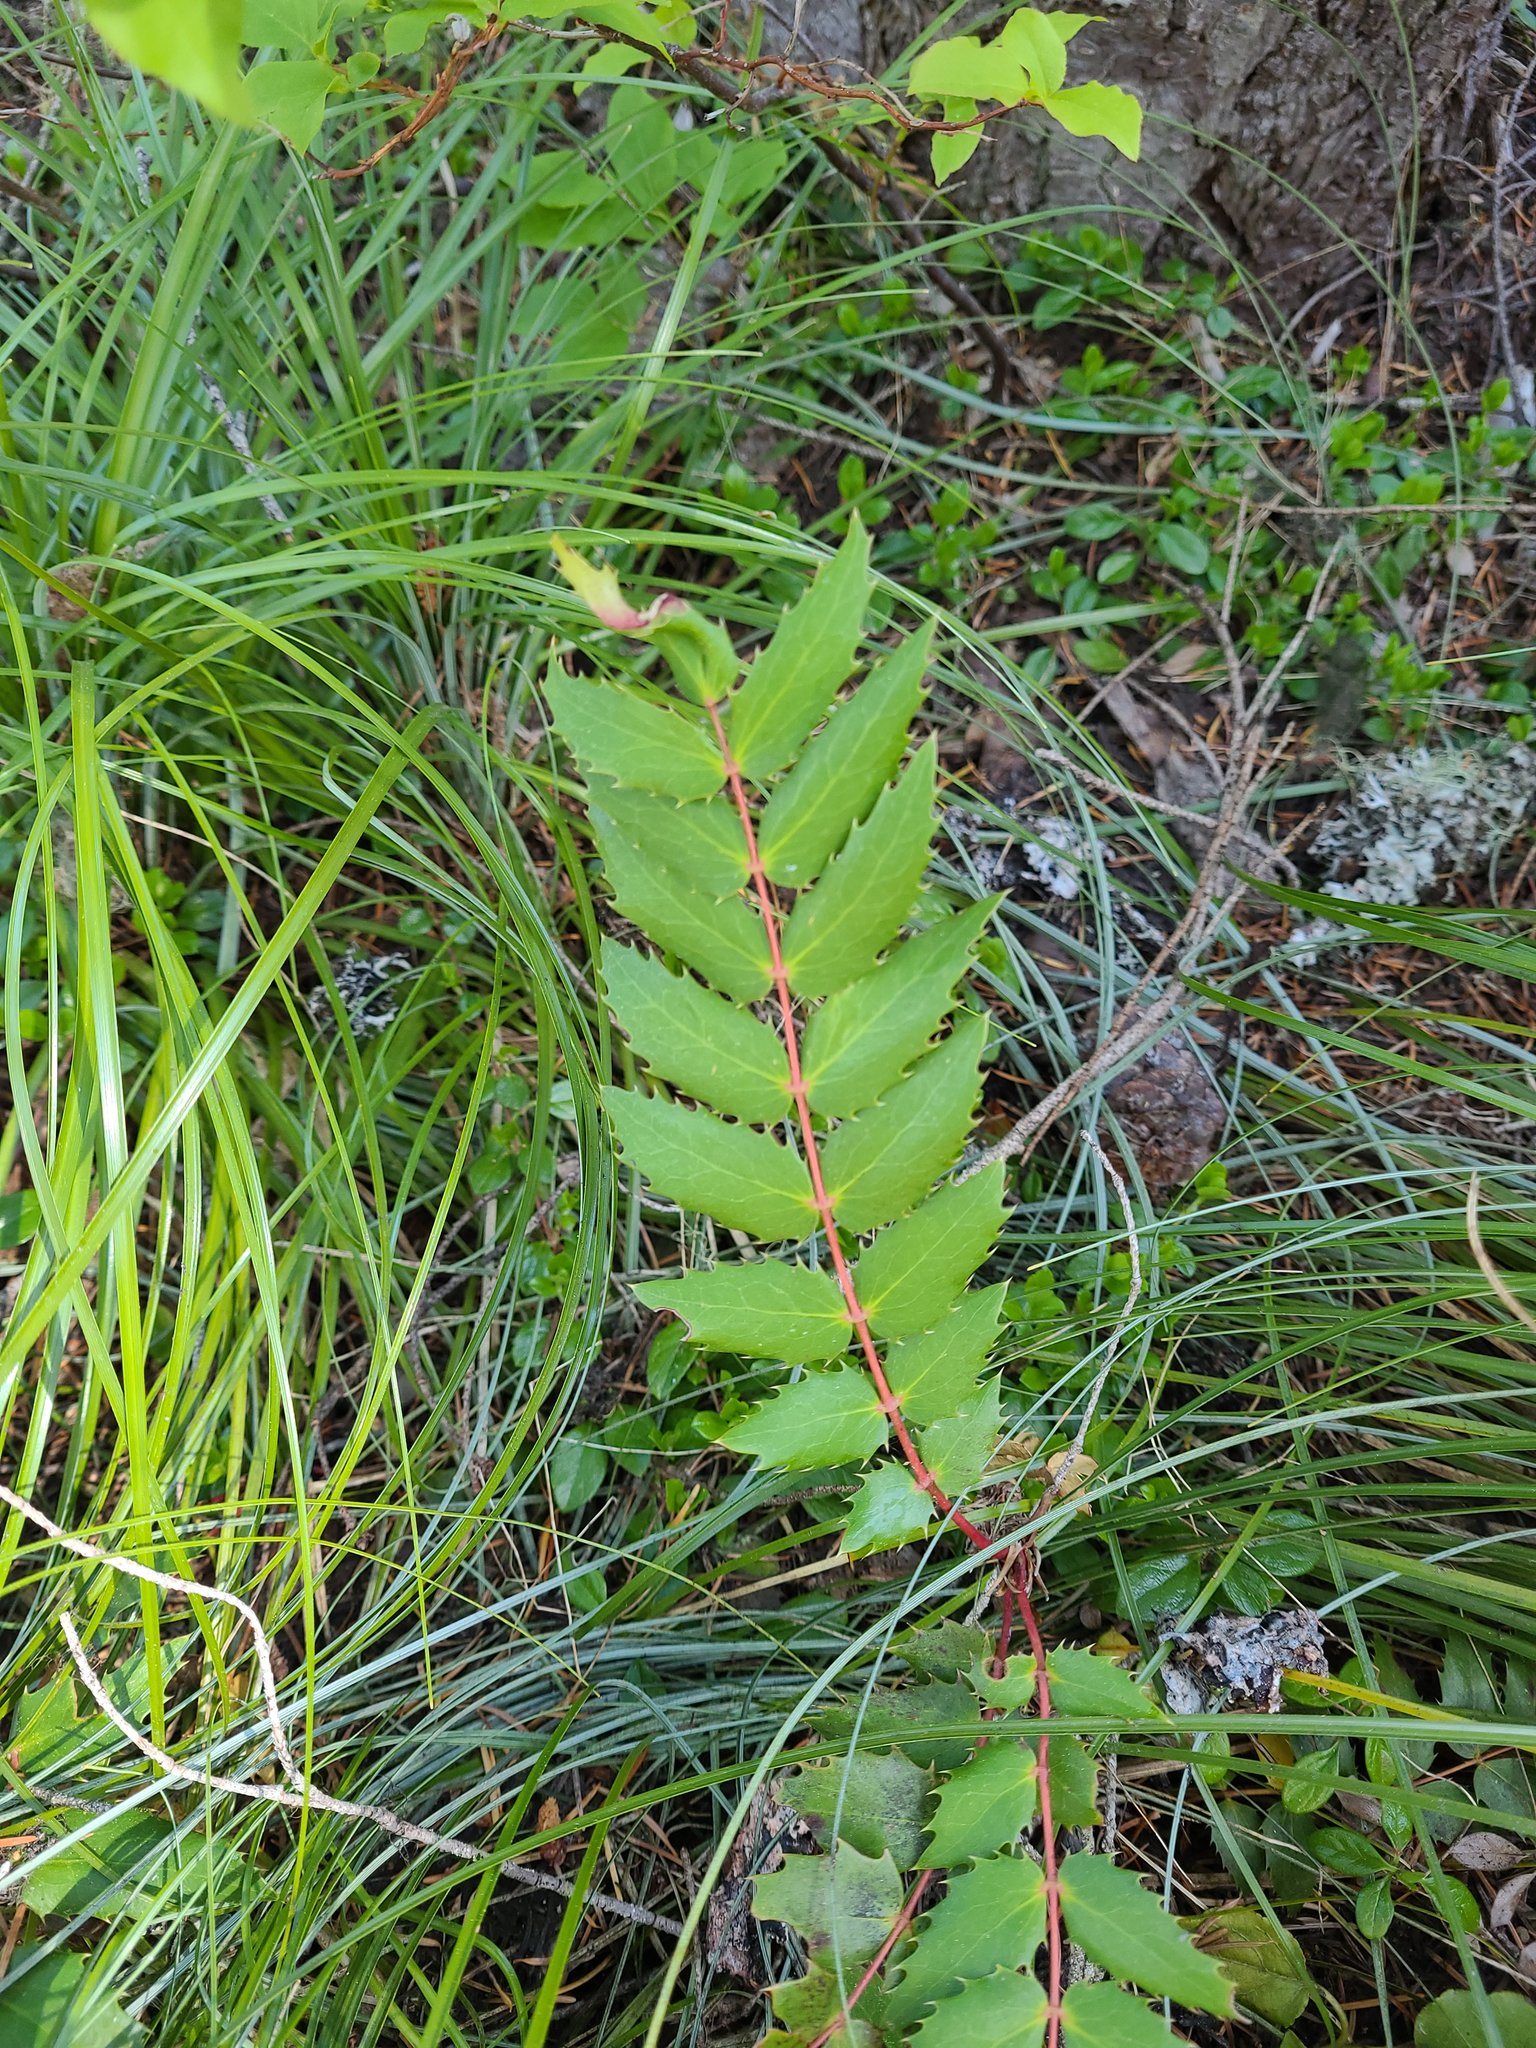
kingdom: Plantae
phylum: Tracheophyta
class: Magnoliopsida
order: Ranunculales
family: Berberidaceae
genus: Mahonia
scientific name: Mahonia nervosa
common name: Cascade oregon-grape
